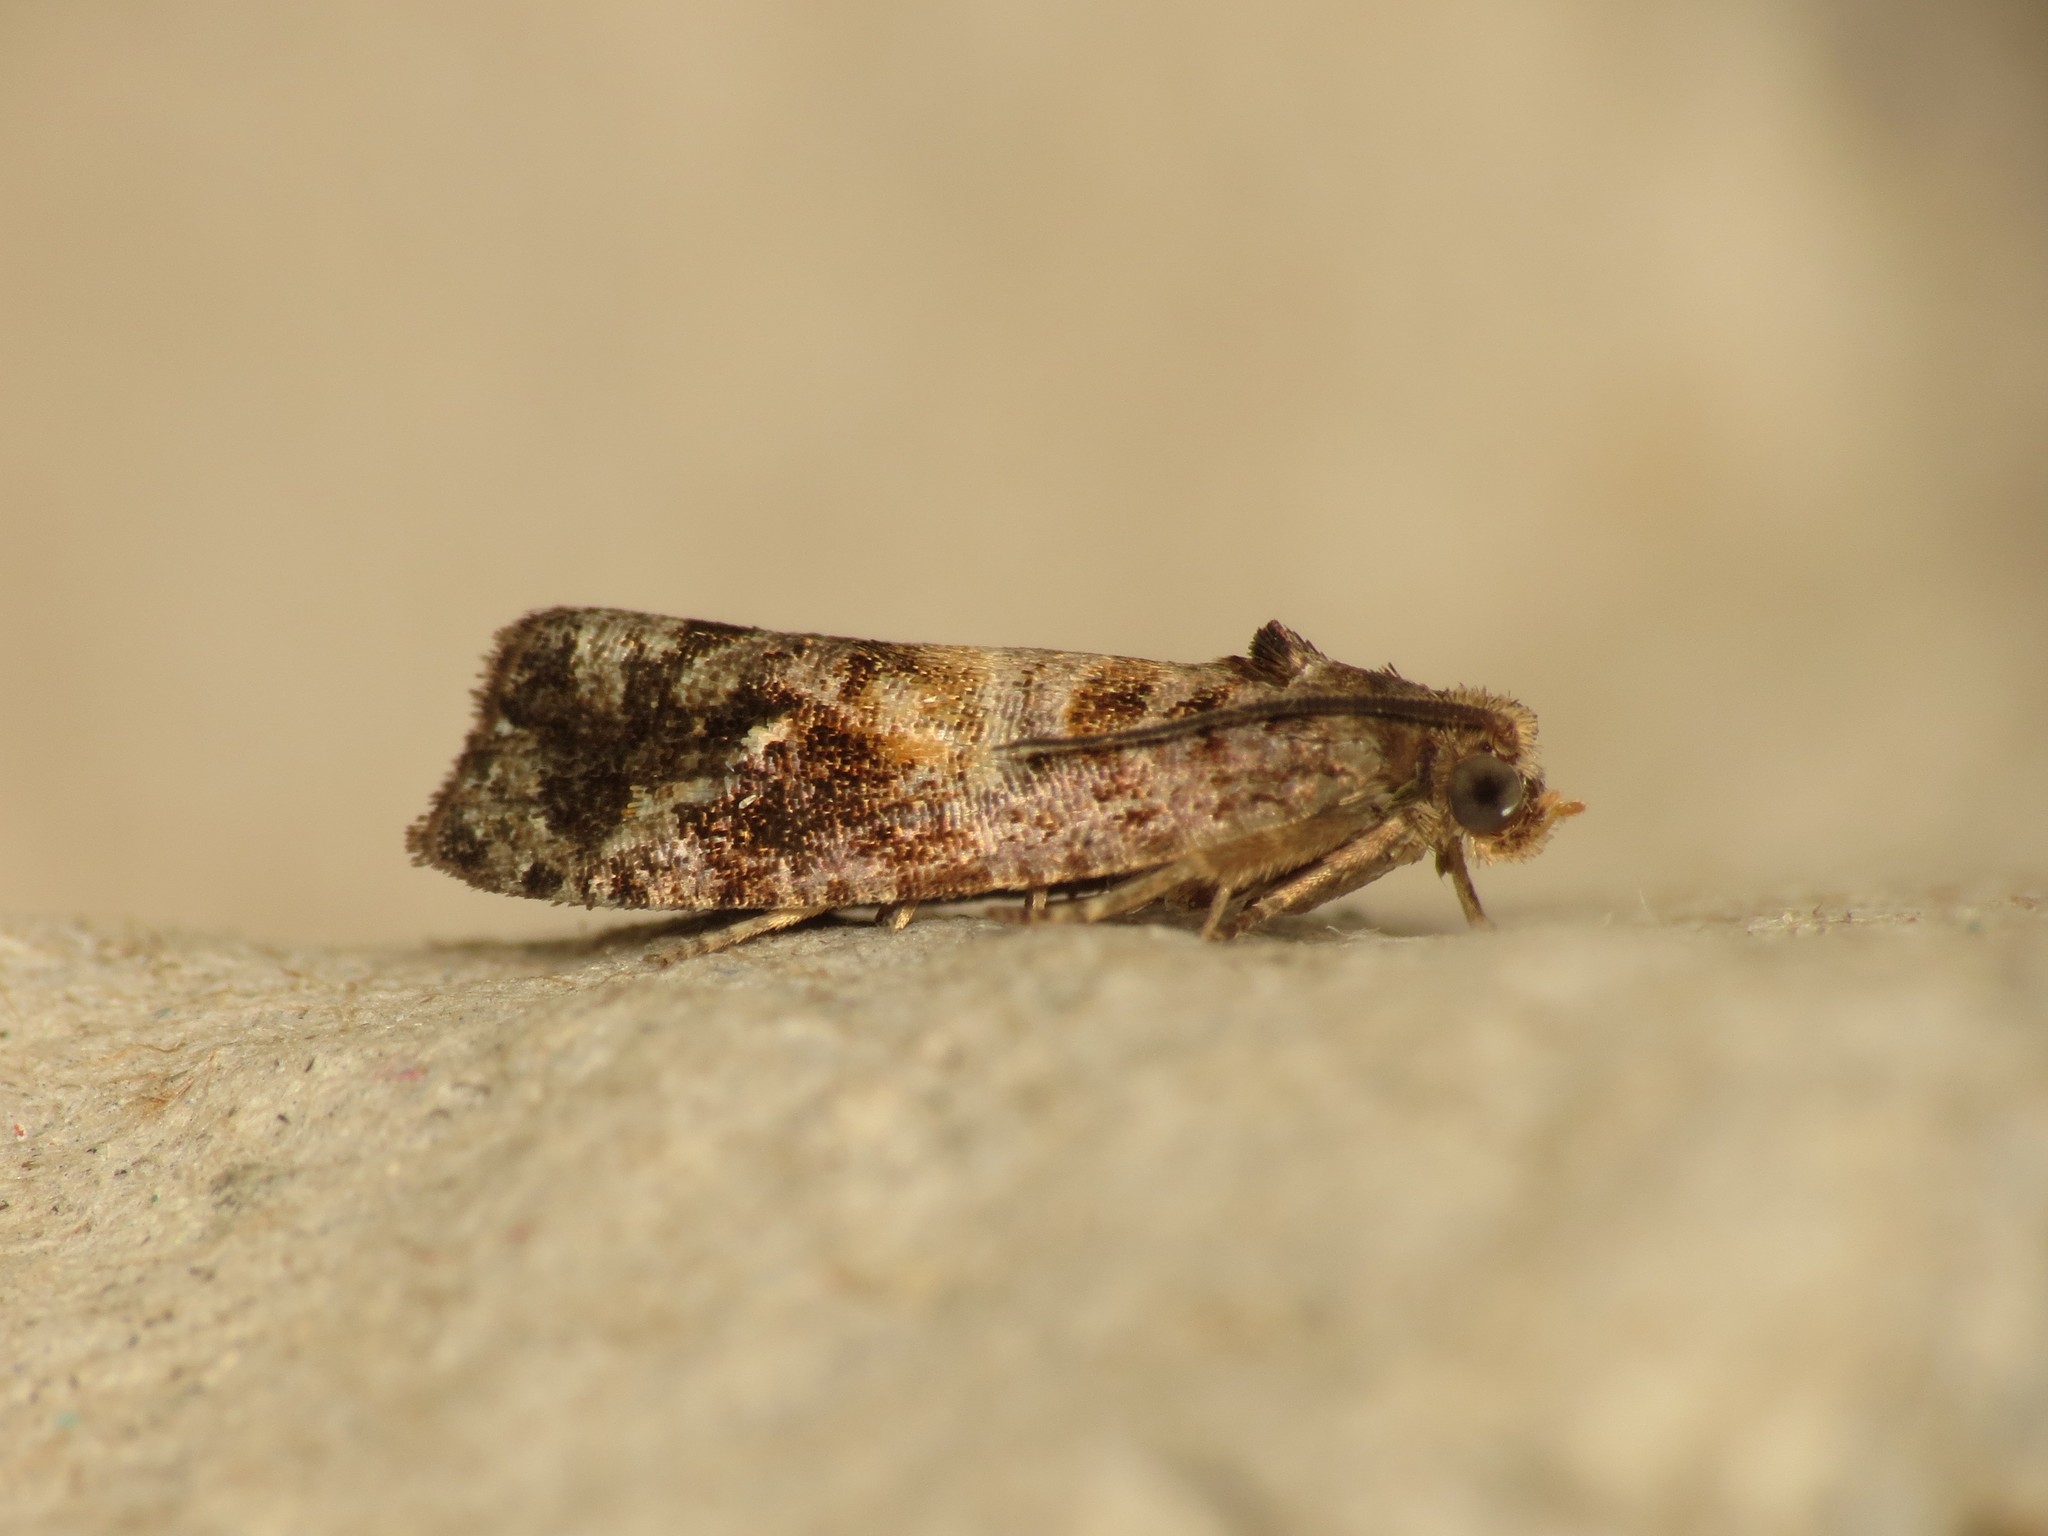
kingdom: Animalia
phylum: Arthropoda
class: Insecta
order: Lepidoptera
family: Tortricidae
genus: Cymolomia
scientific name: Cymolomia hartigiana
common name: Tortrix moth
